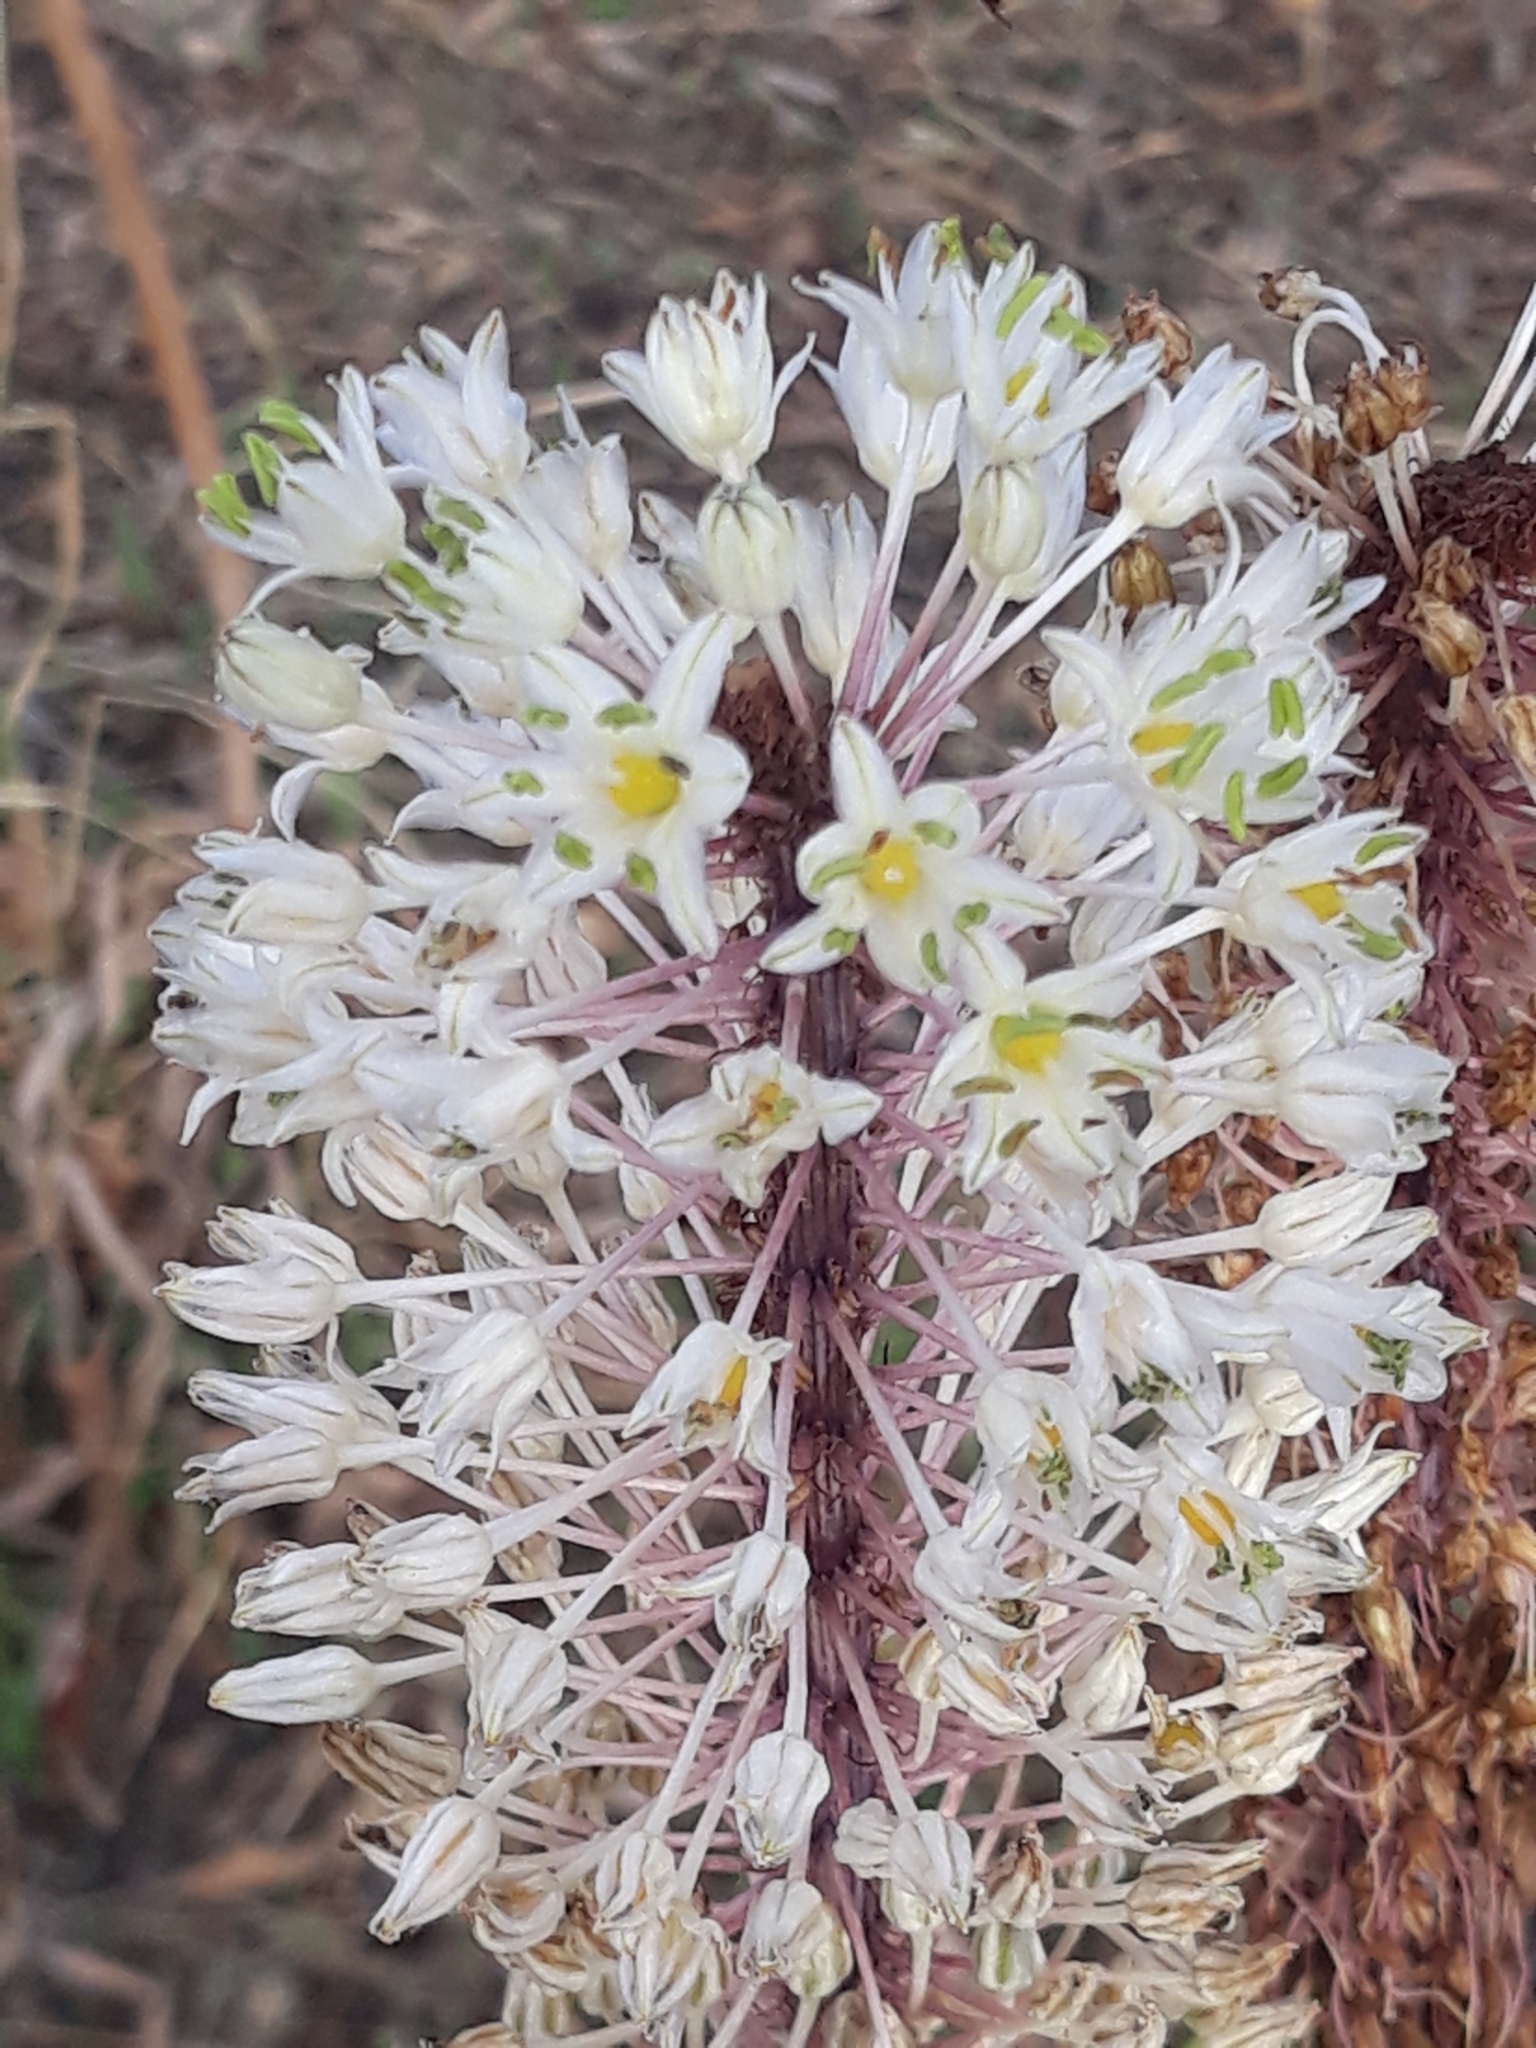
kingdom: Plantae
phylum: Tracheophyta
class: Liliopsida
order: Asparagales
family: Asparagaceae
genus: Drimia
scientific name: Drimia numidica
